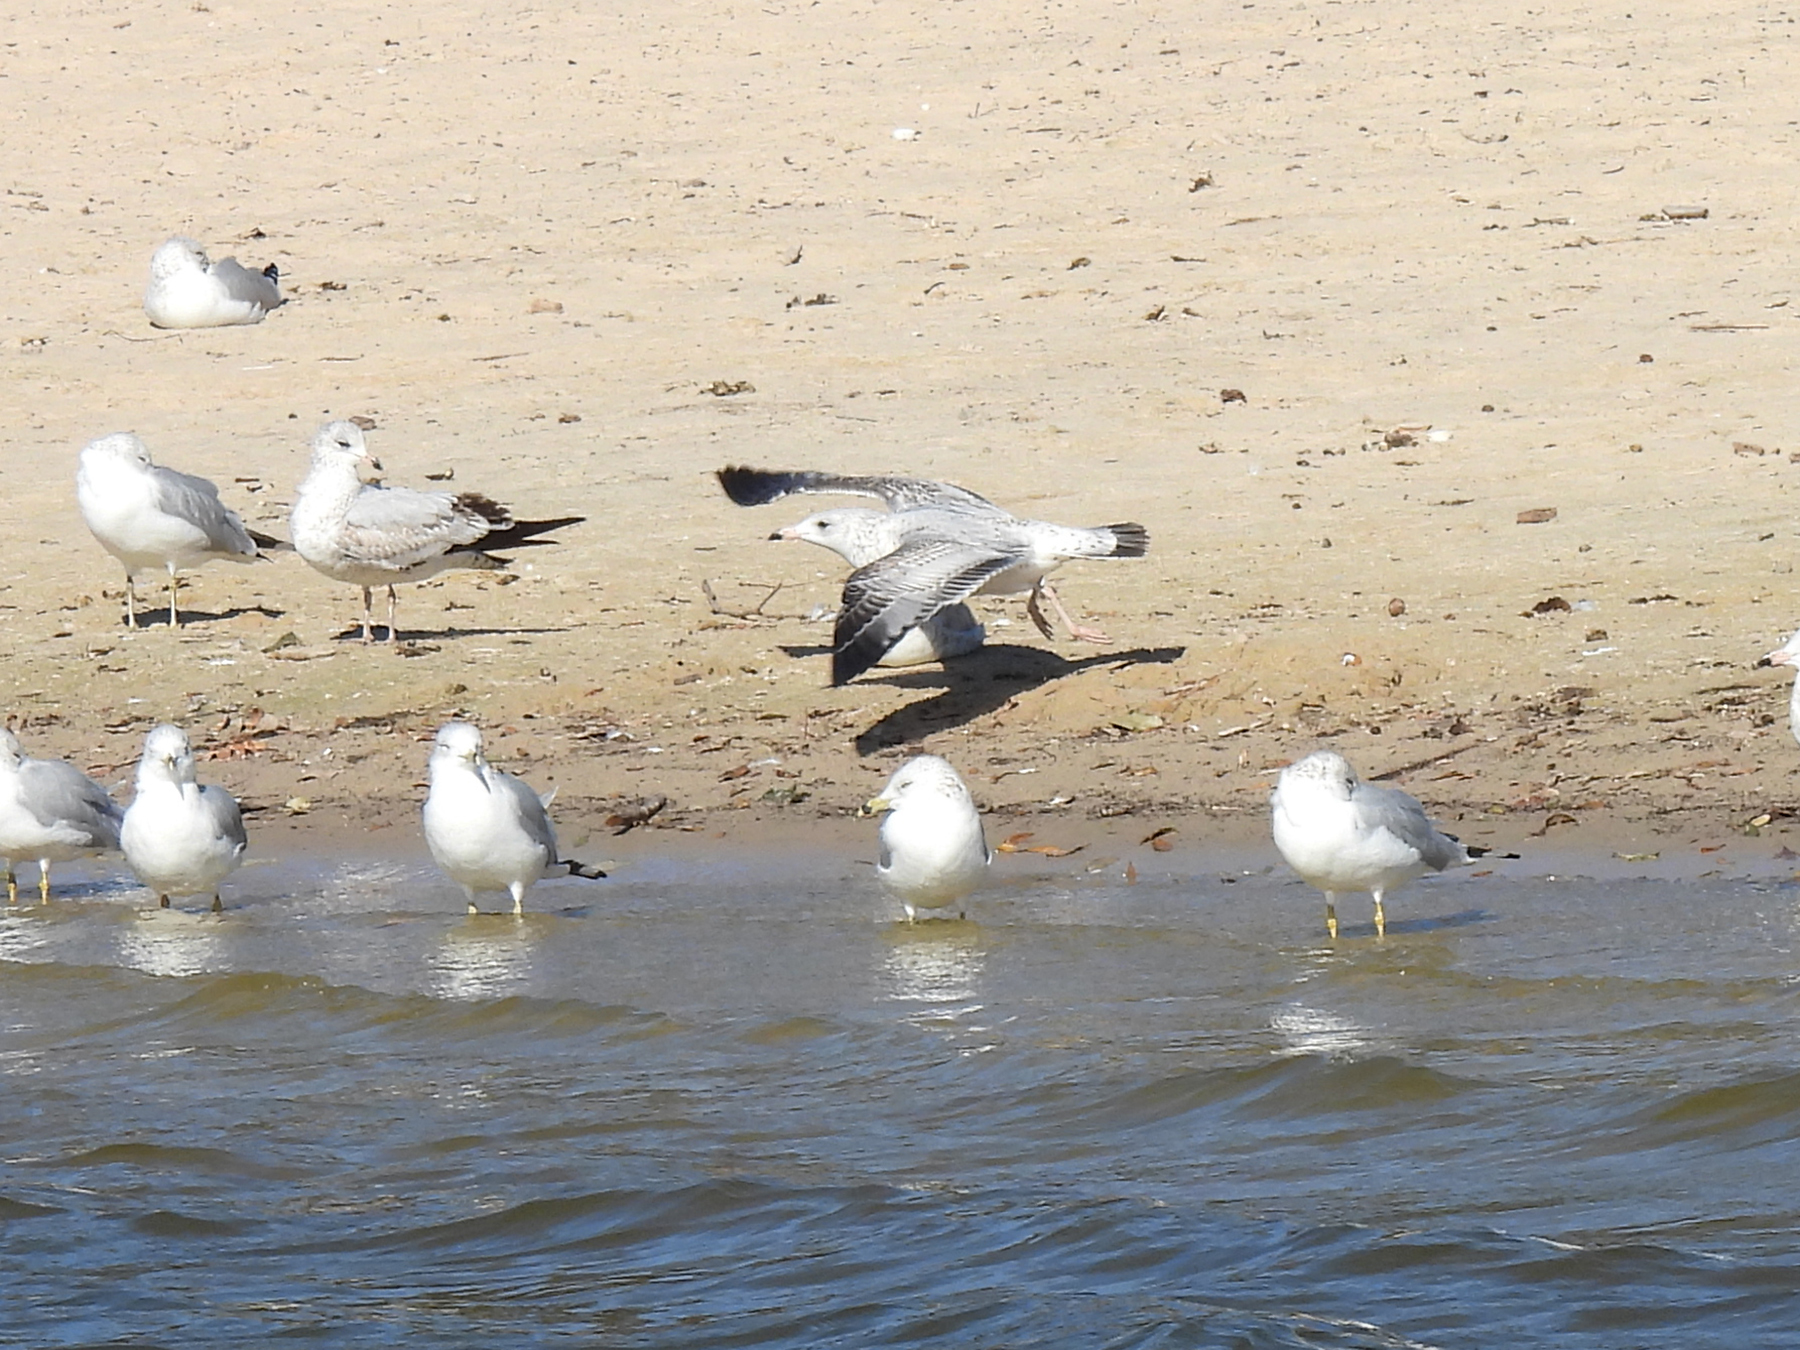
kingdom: Animalia
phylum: Chordata
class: Aves
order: Charadriiformes
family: Laridae
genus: Larus
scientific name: Larus delawarensis
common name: Ring-billed gull
